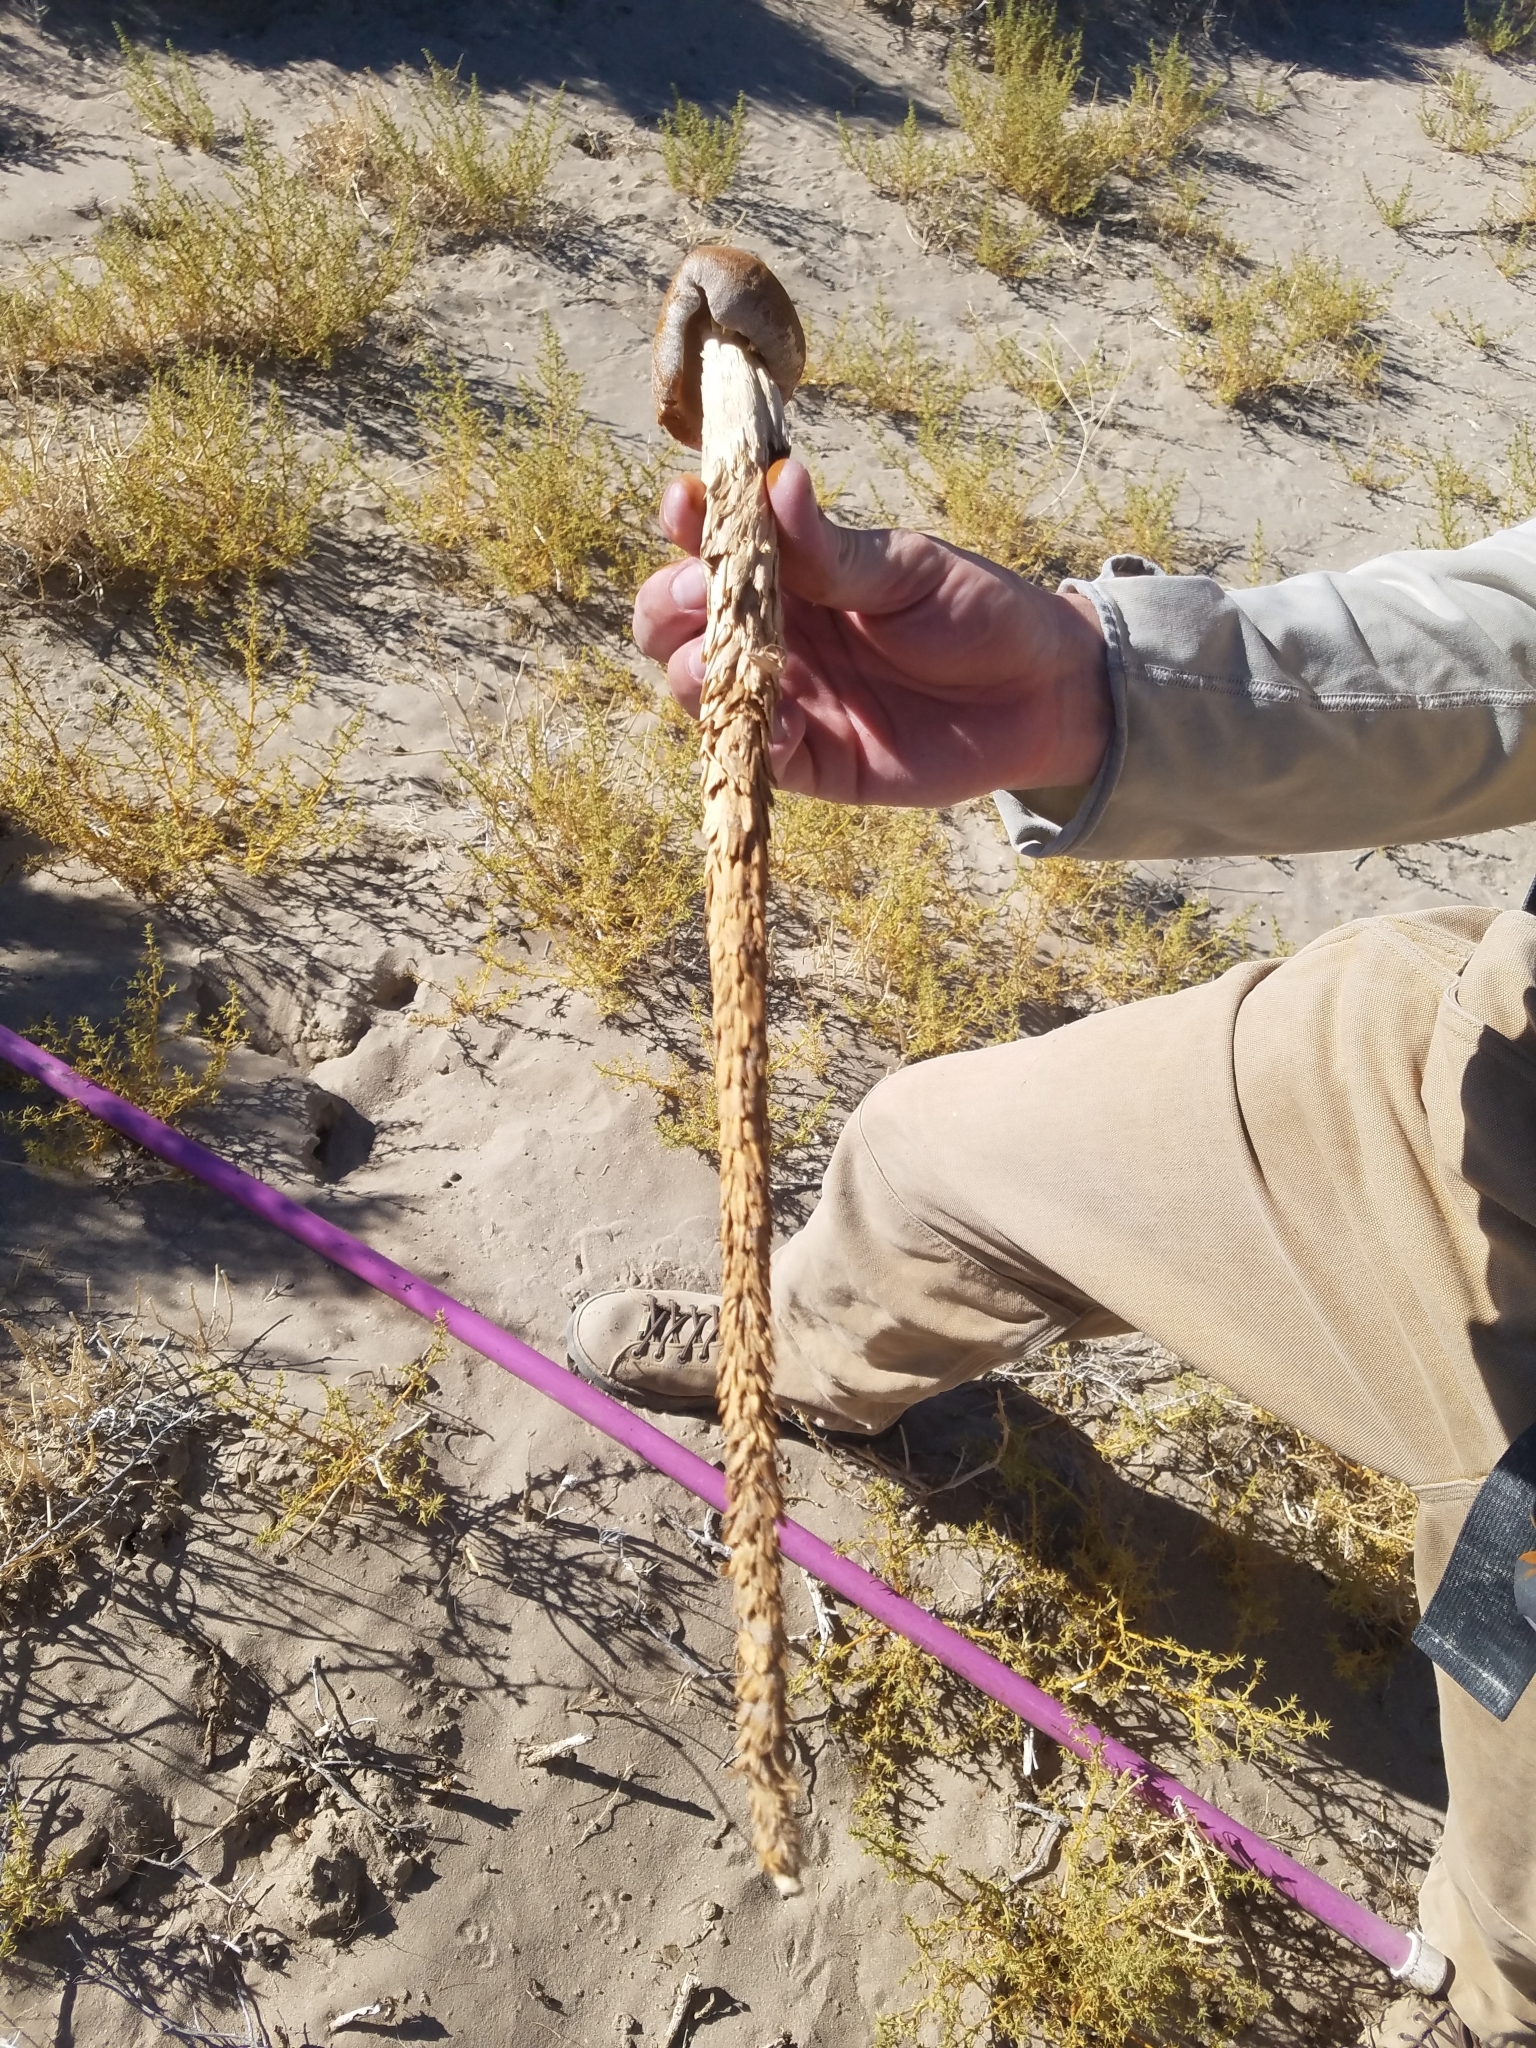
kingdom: Fungi
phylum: Basidiomycota
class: Agaricomycetes
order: Agaricales
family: Agaricaceae
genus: Battarrea
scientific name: Battarrea phalloides
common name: Sandy stiltball
